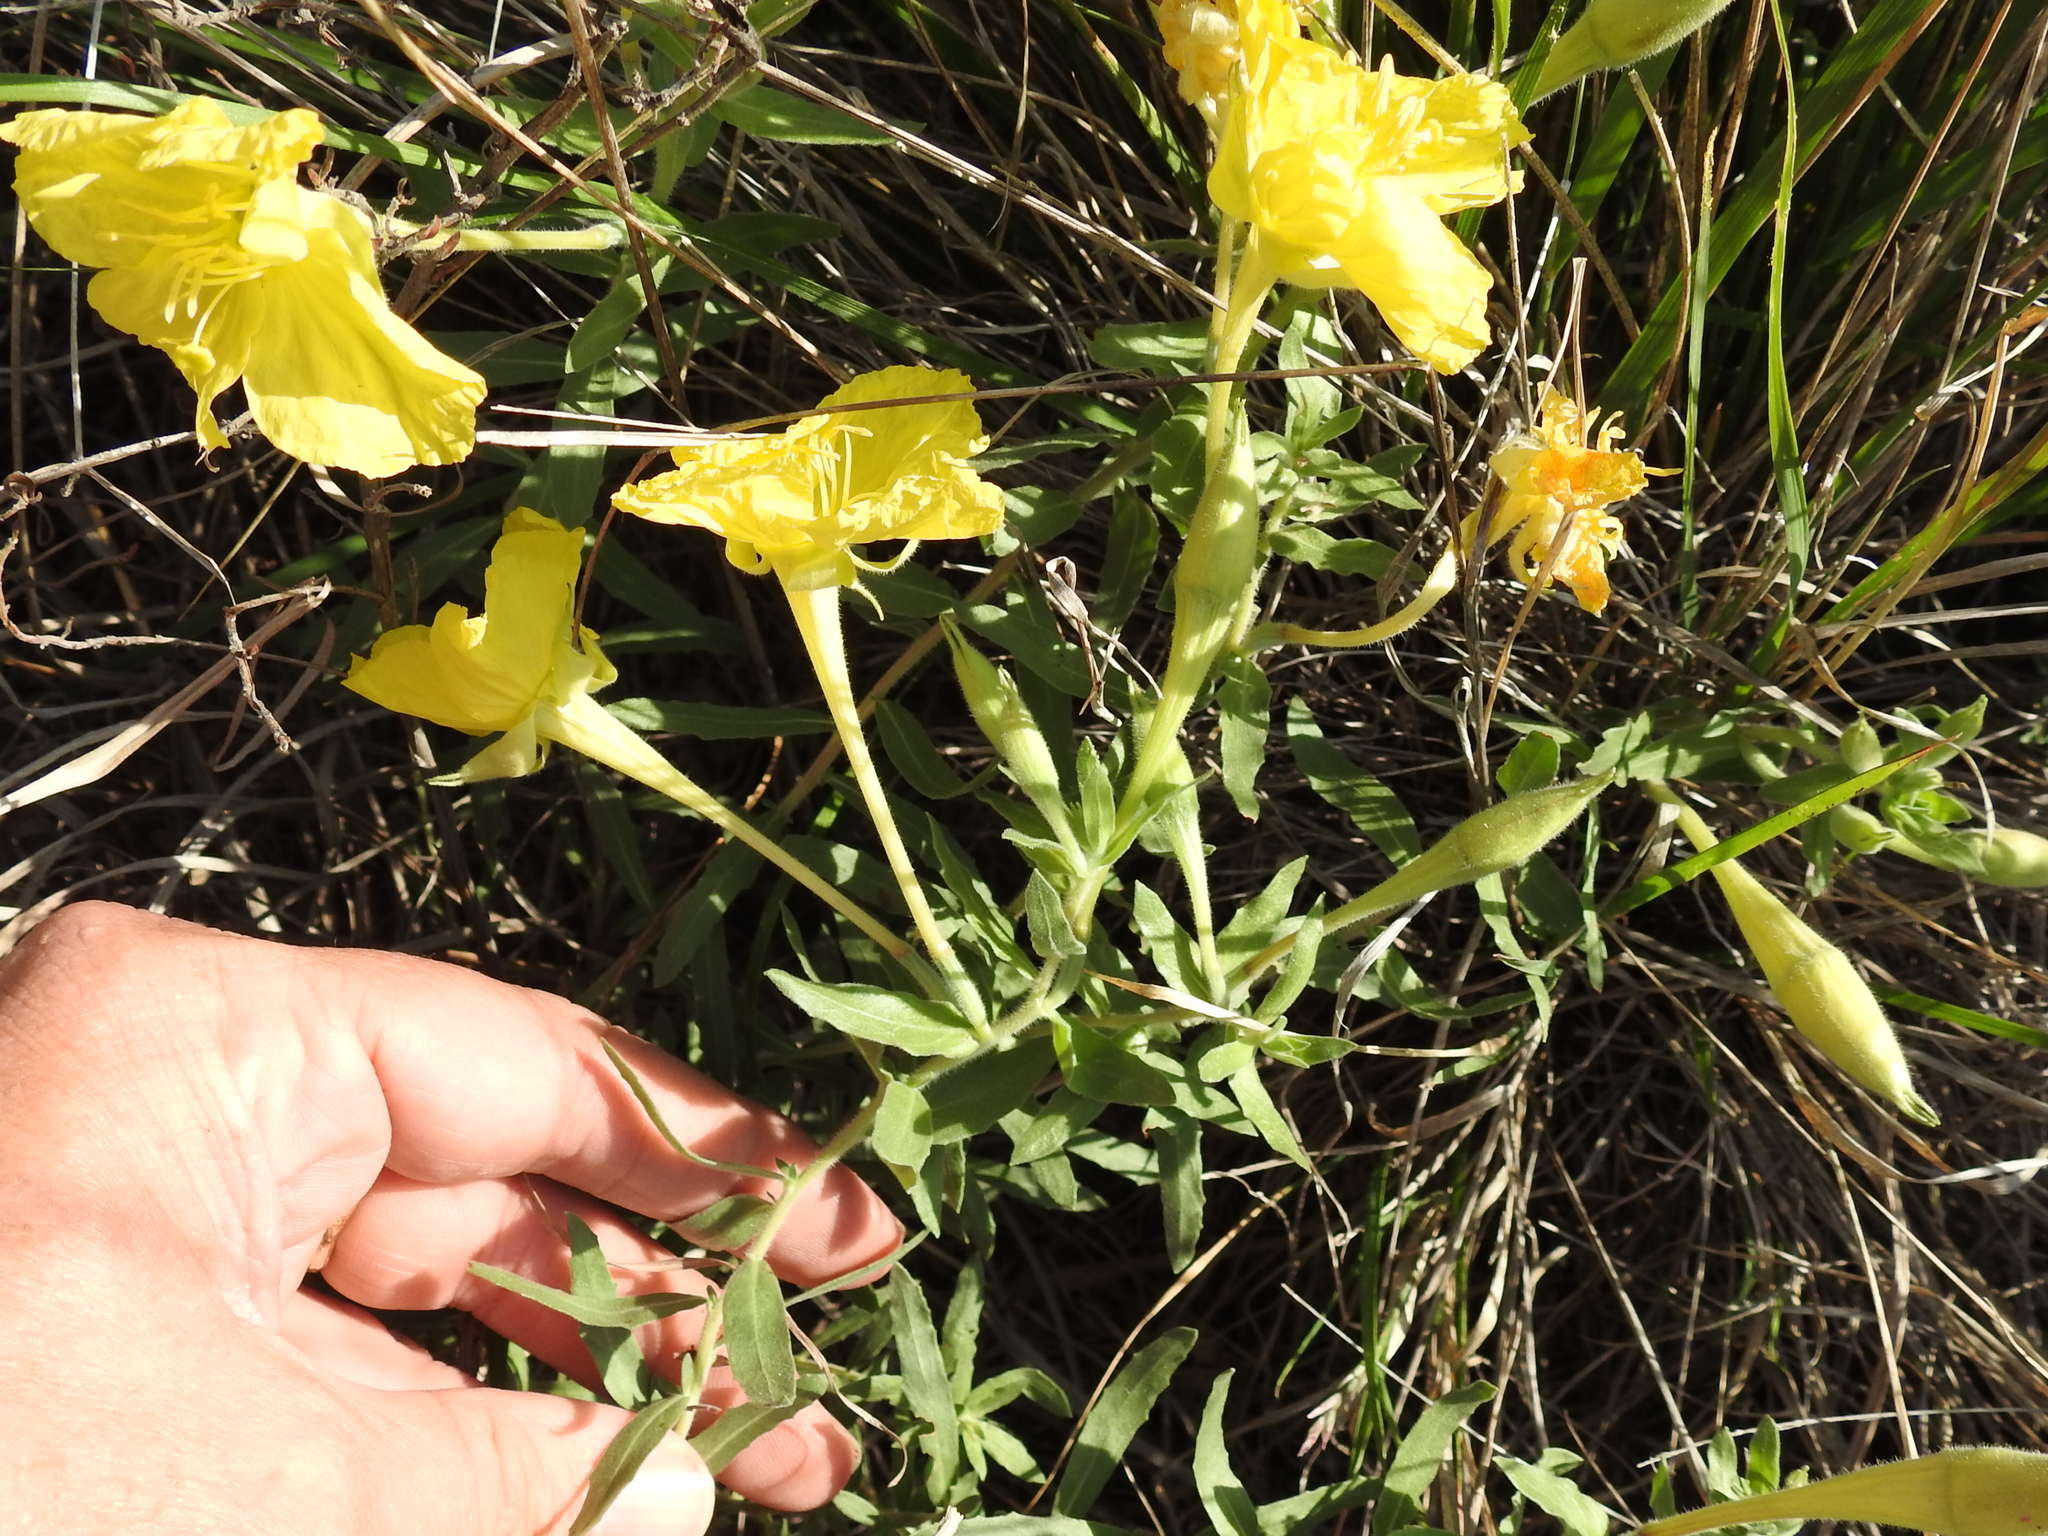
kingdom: Plantae
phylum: Tracheophyta
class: Magnoliopsida
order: Myrtales
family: Onagraceae
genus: Oenothera
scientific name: Oenothera hartwegii
